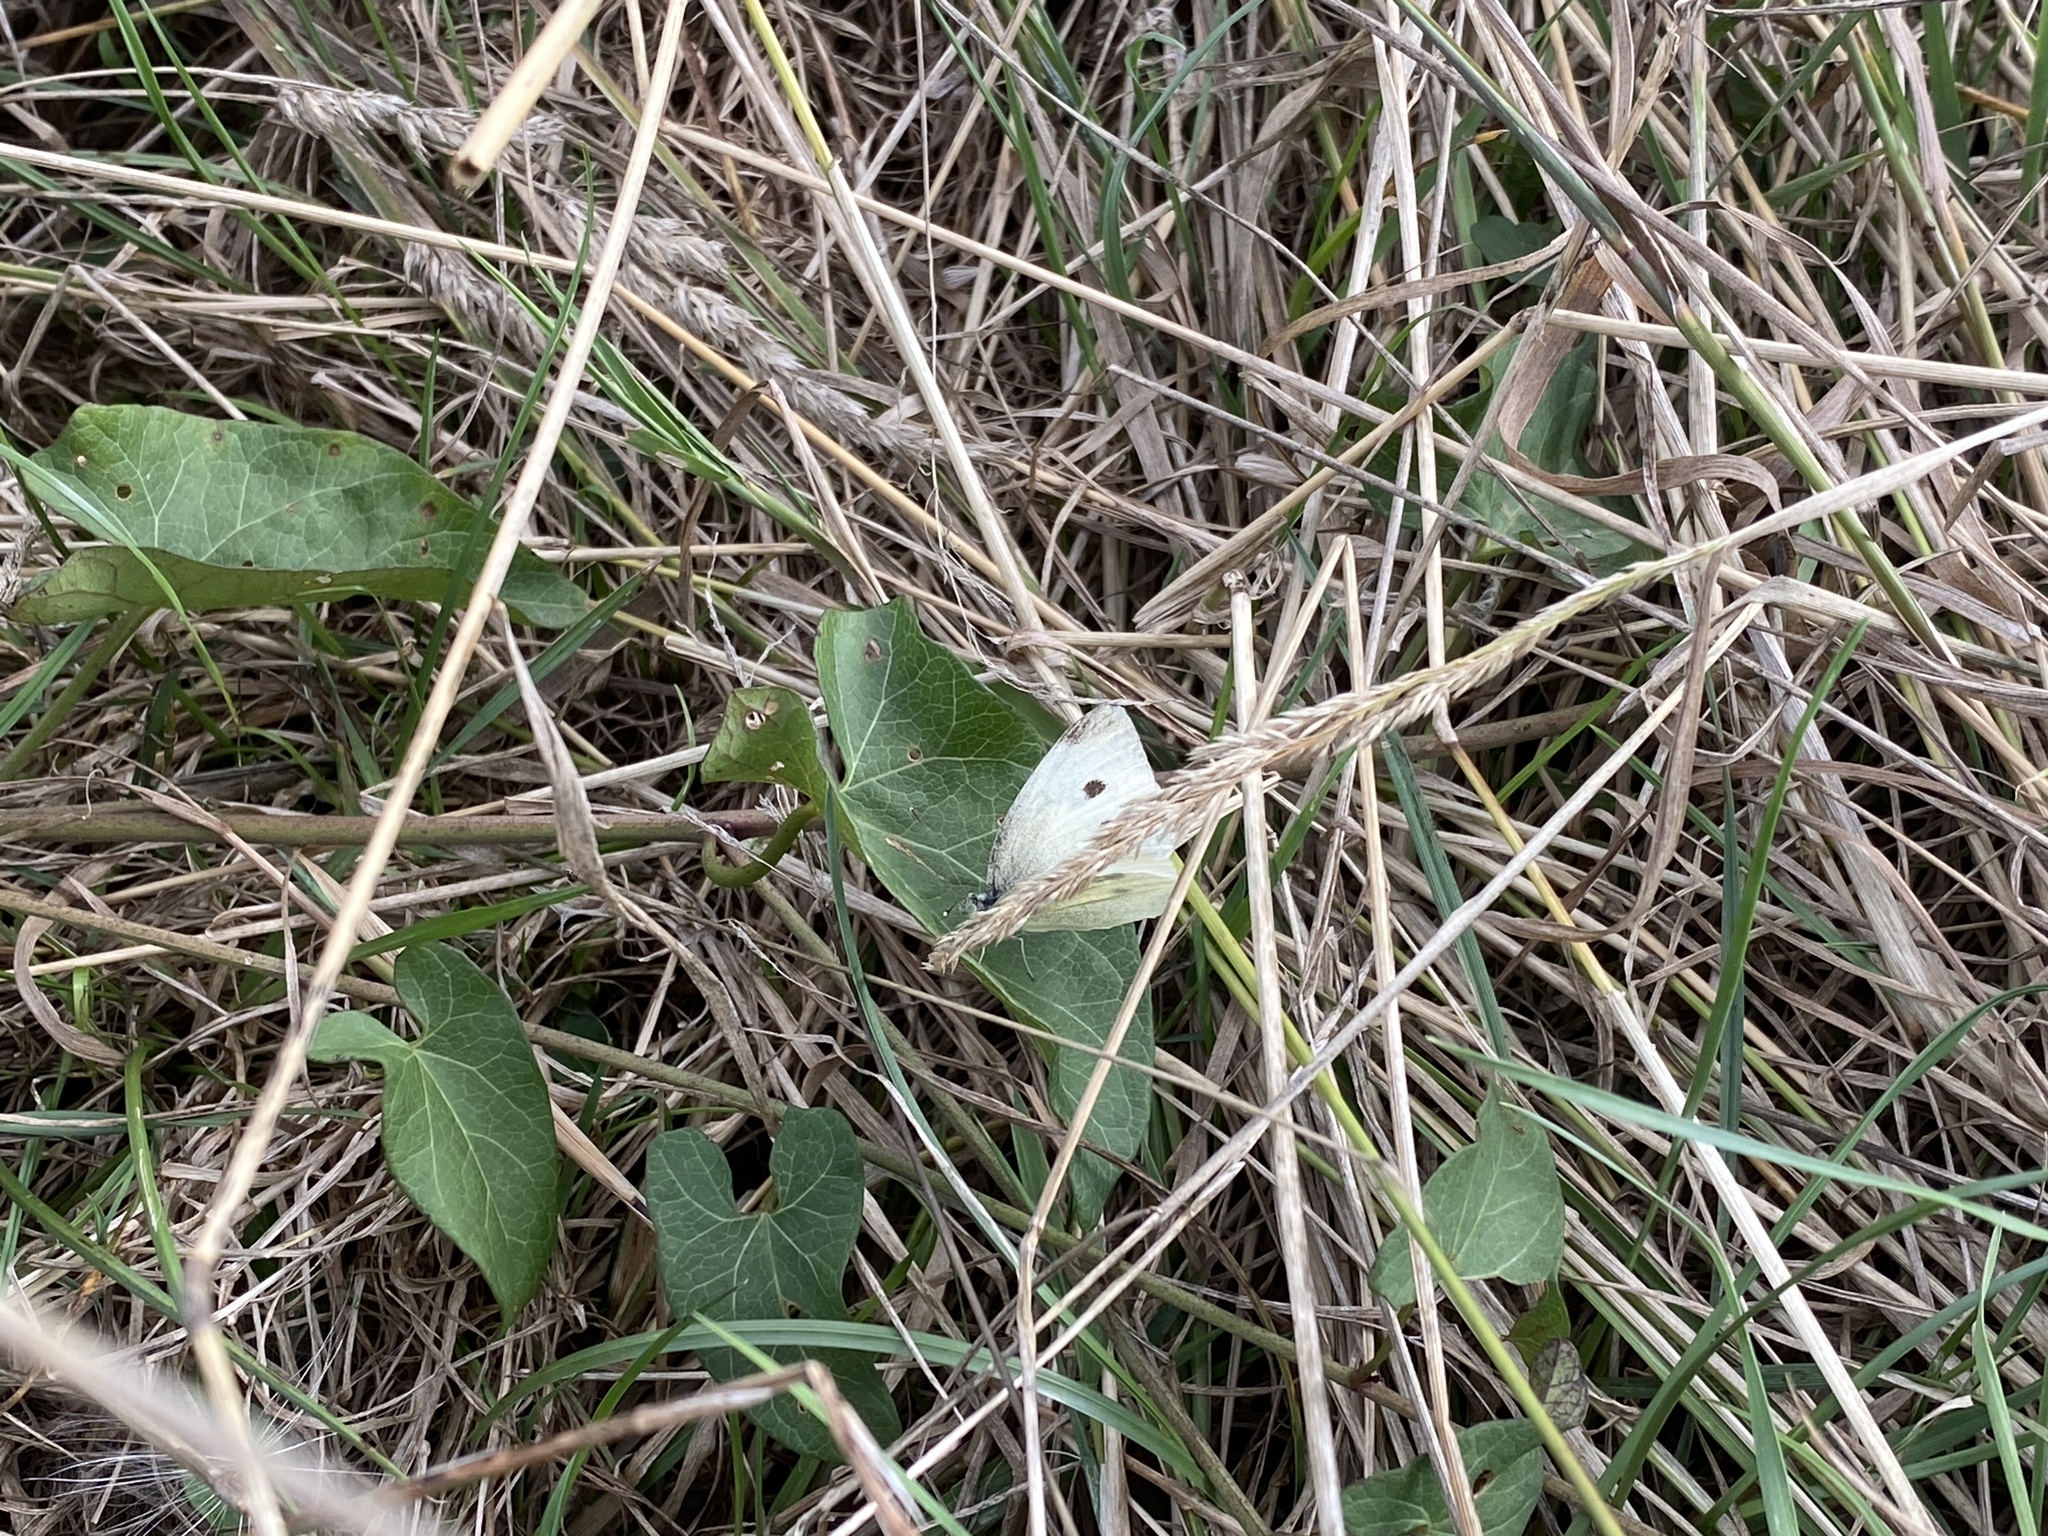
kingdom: Animalia
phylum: Arthropoda
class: Insecta
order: Lepidoptera
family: Pieridae
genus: Pieris
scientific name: Pieris rapae
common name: Small white
